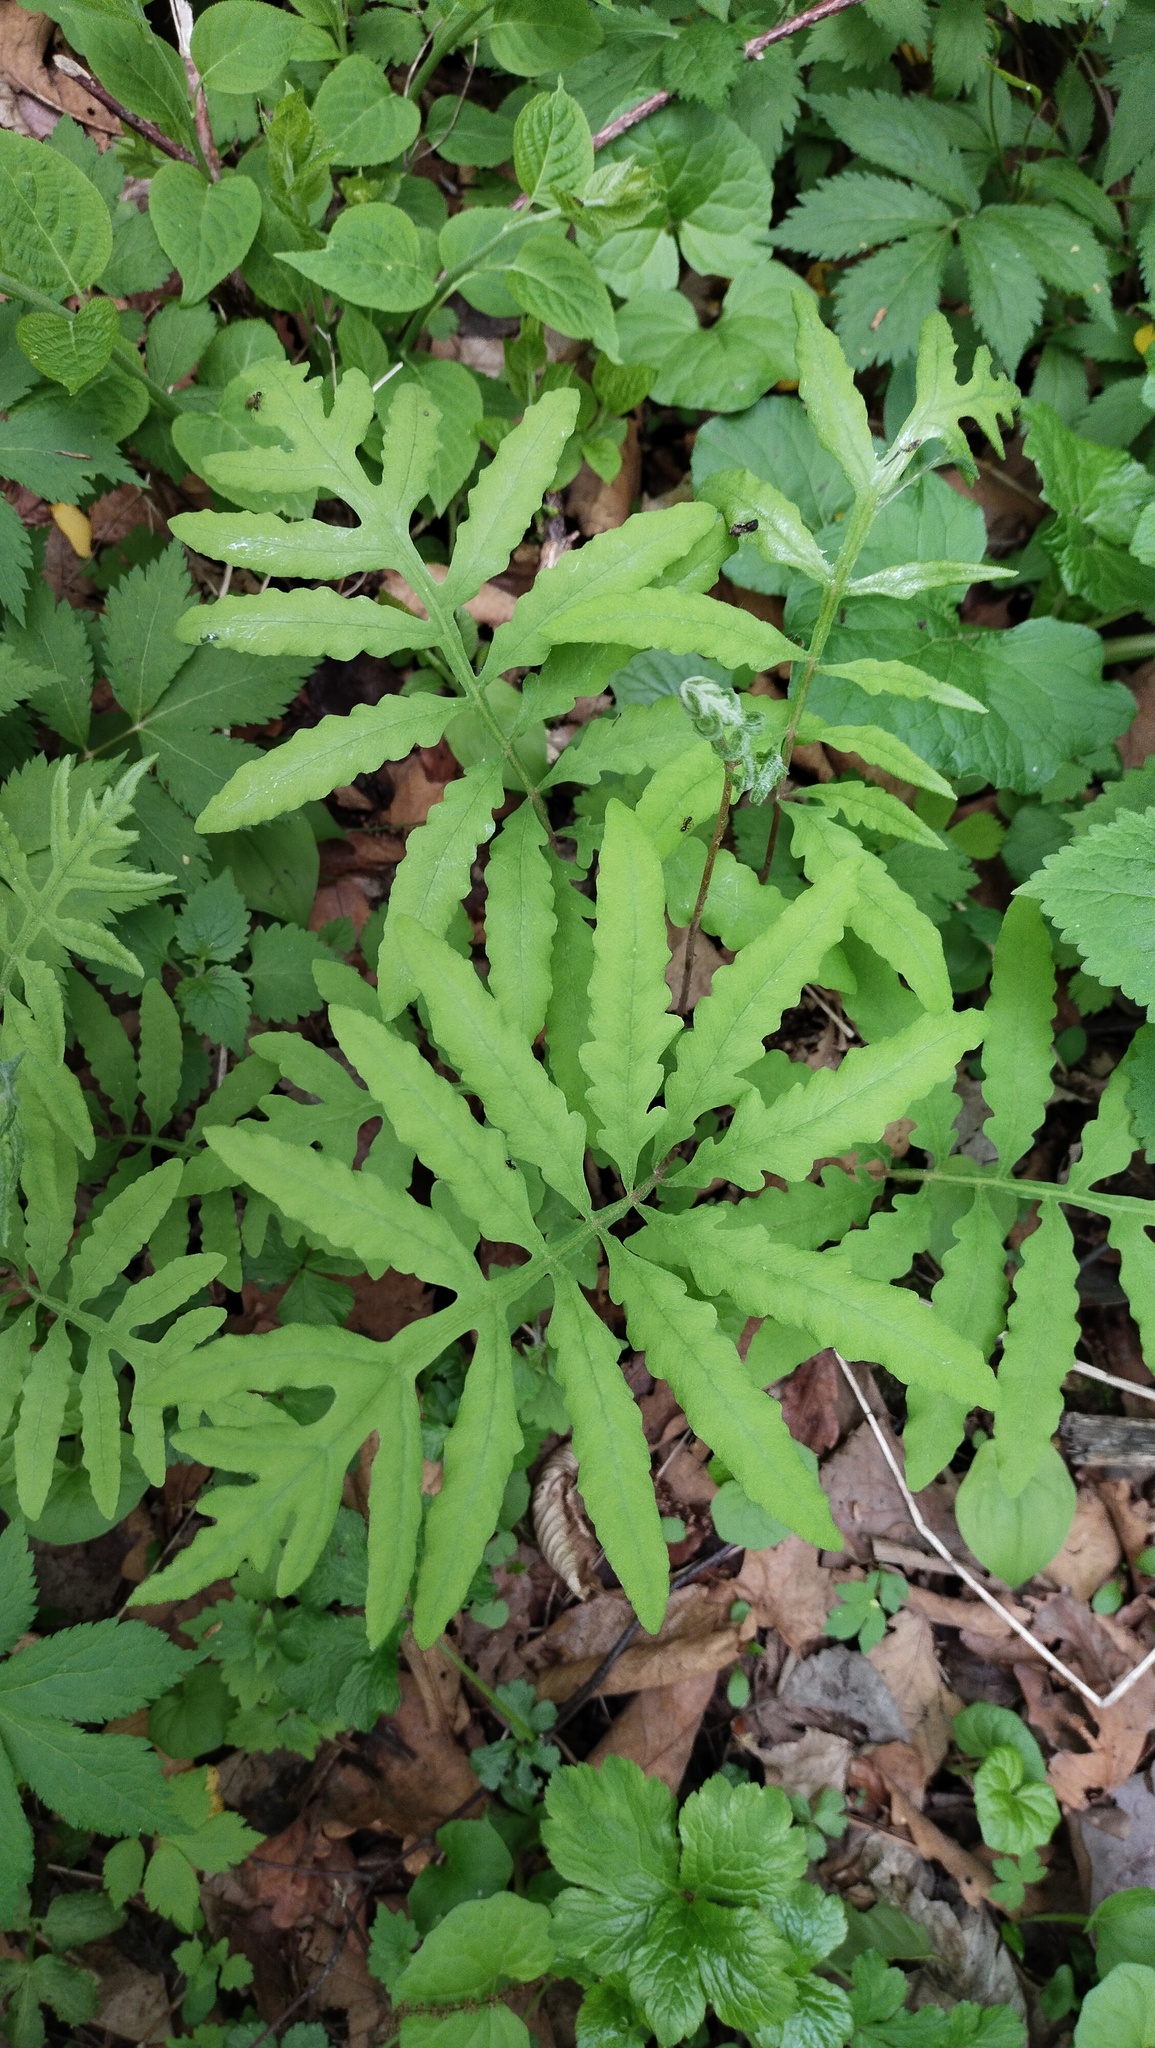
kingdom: Plantae
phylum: Tracheophyta
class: Polypodiopsida
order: Polypodiales
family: Onocleaceae
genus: Onoclea
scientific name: Onoclea sensibilis
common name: Sensitive fern
